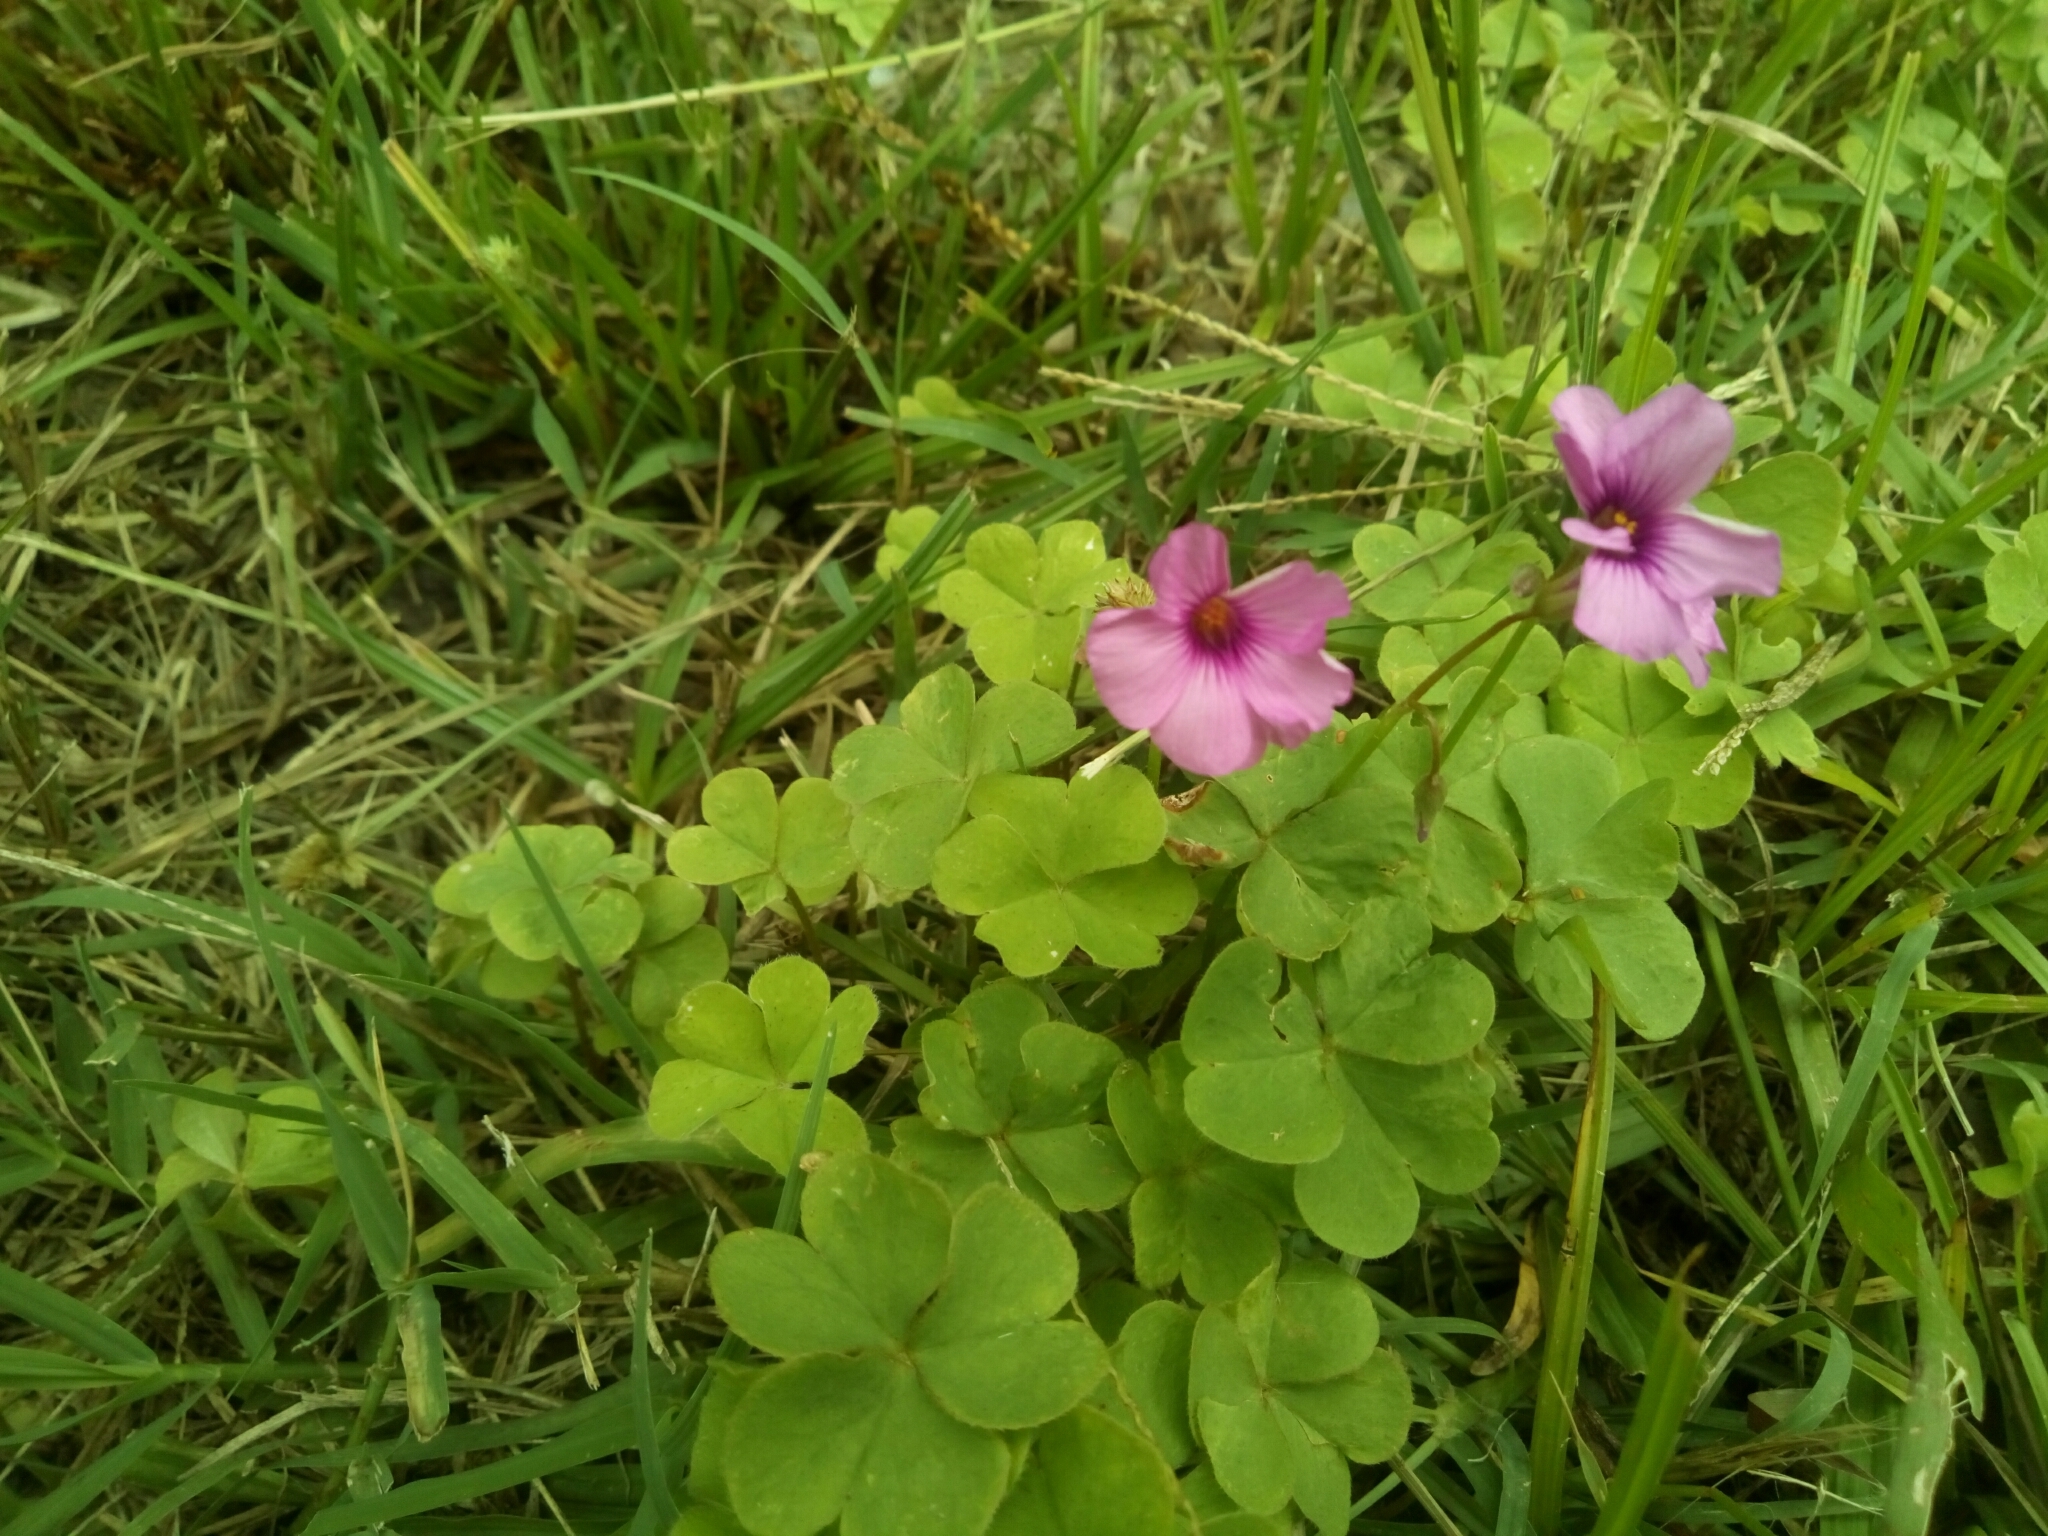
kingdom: Plantae
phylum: Tracheophyta
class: Magnoliopsida
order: Oxalidales
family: Oxalidaceae
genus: Oxalis
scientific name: Oxalis articulata
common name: Pink-sorrel
